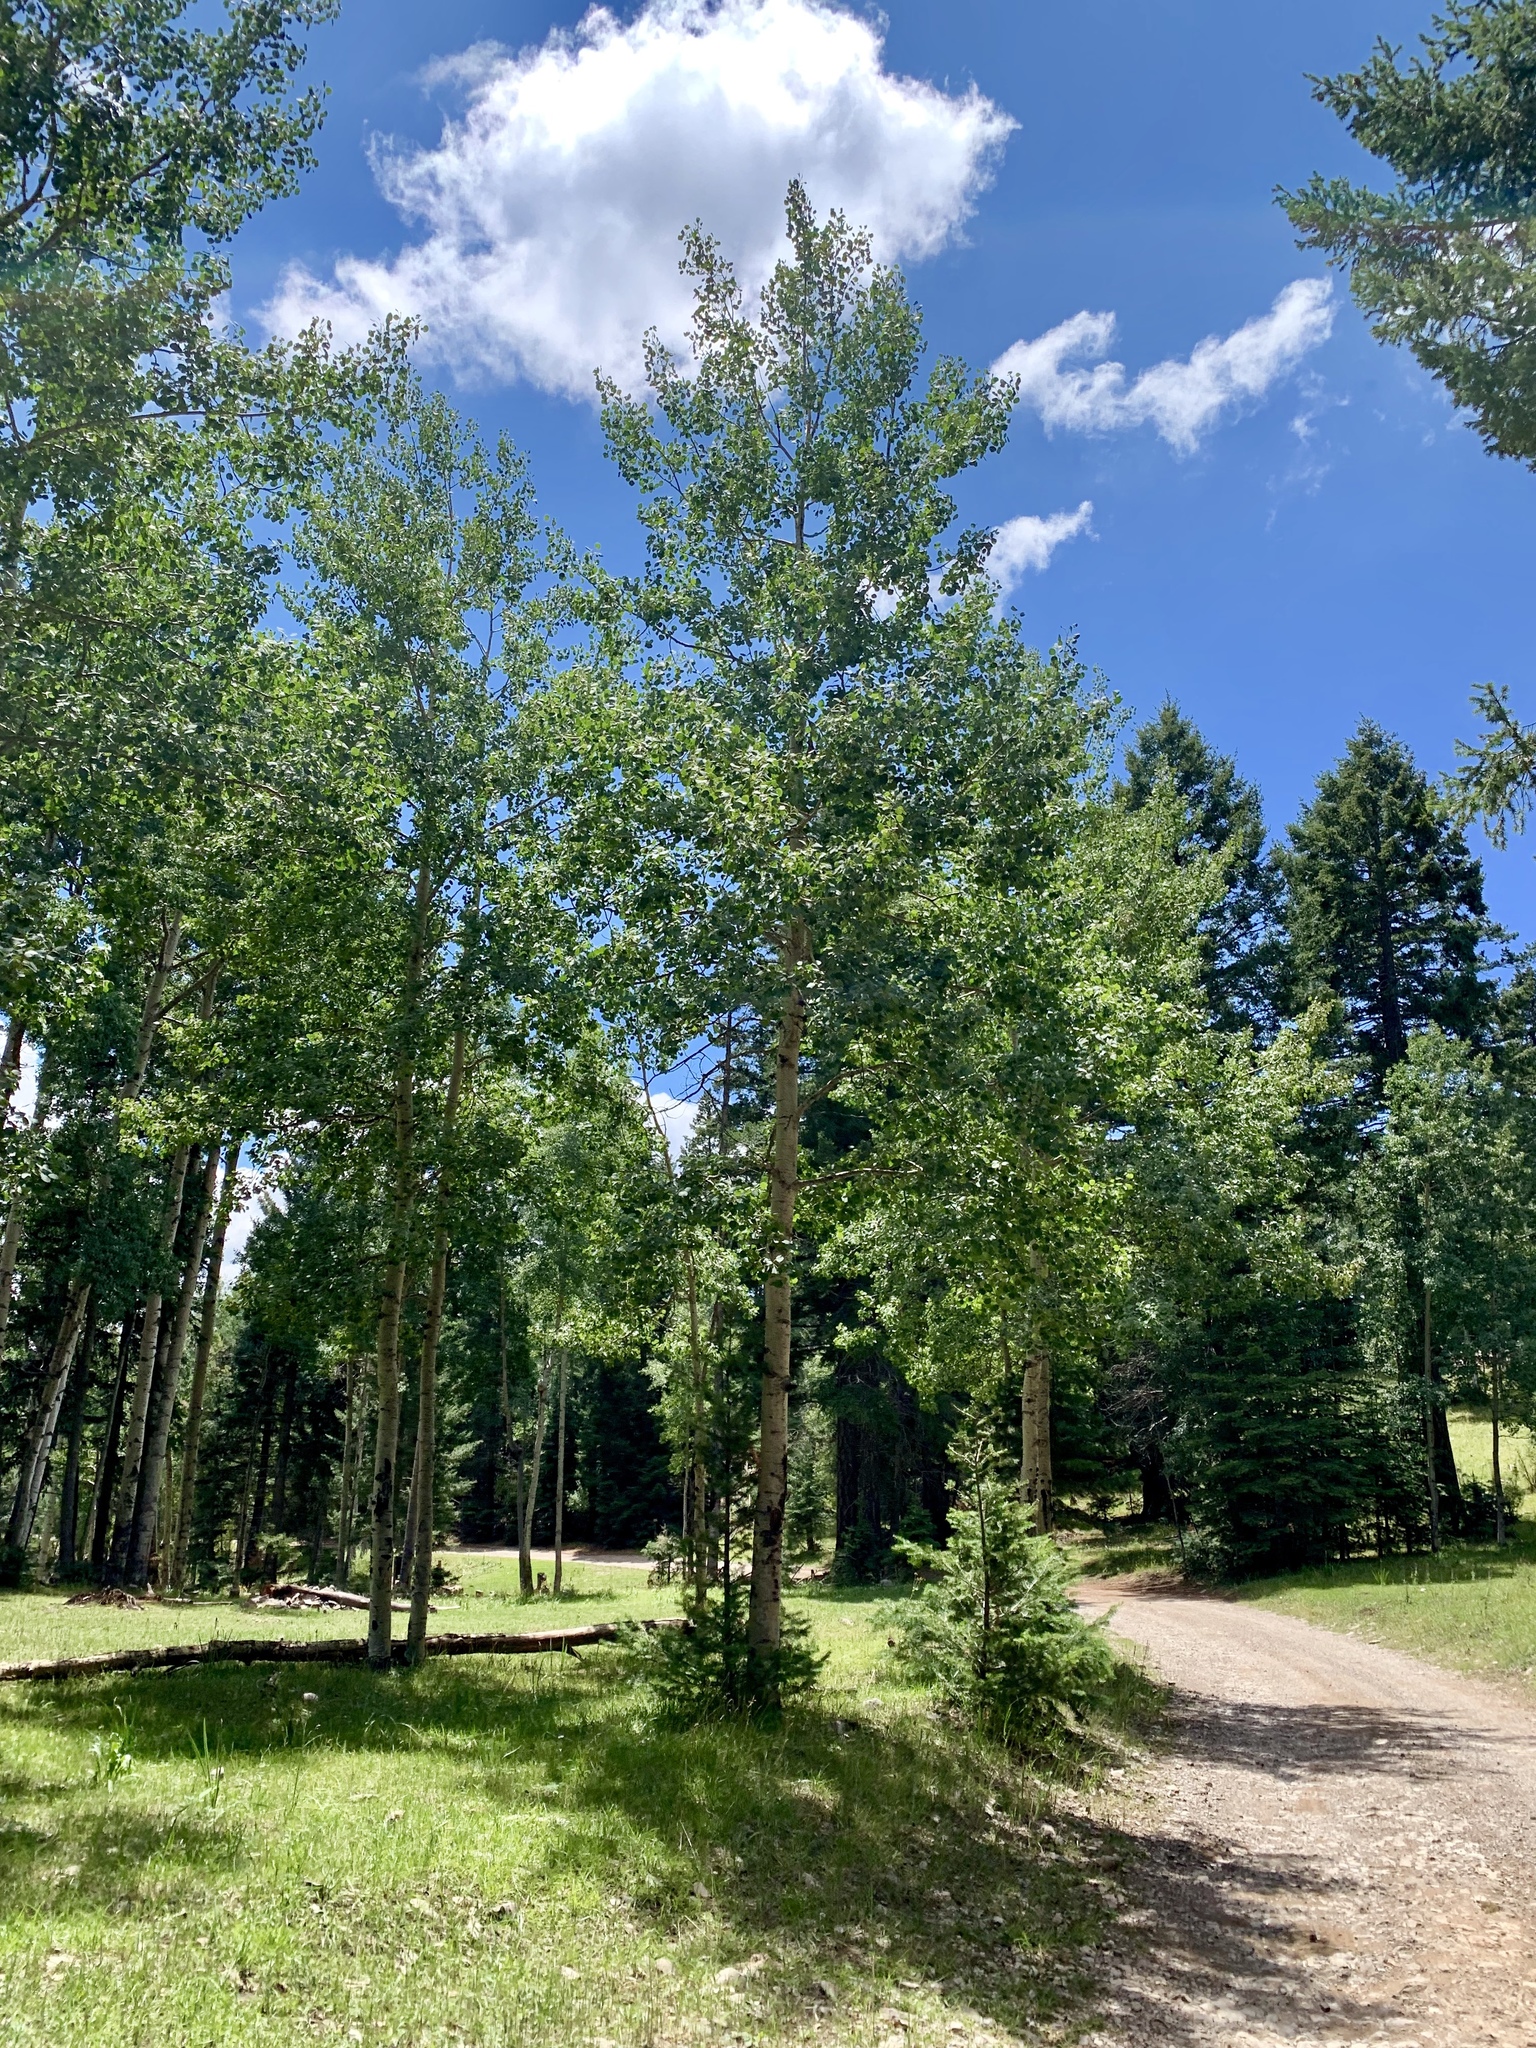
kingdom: Plantae
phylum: Tracheophyta
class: Magnoliopsida
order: Malpighiales
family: Salicaceae
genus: Populus
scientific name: Populus tremuloides
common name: Quaking aspen
